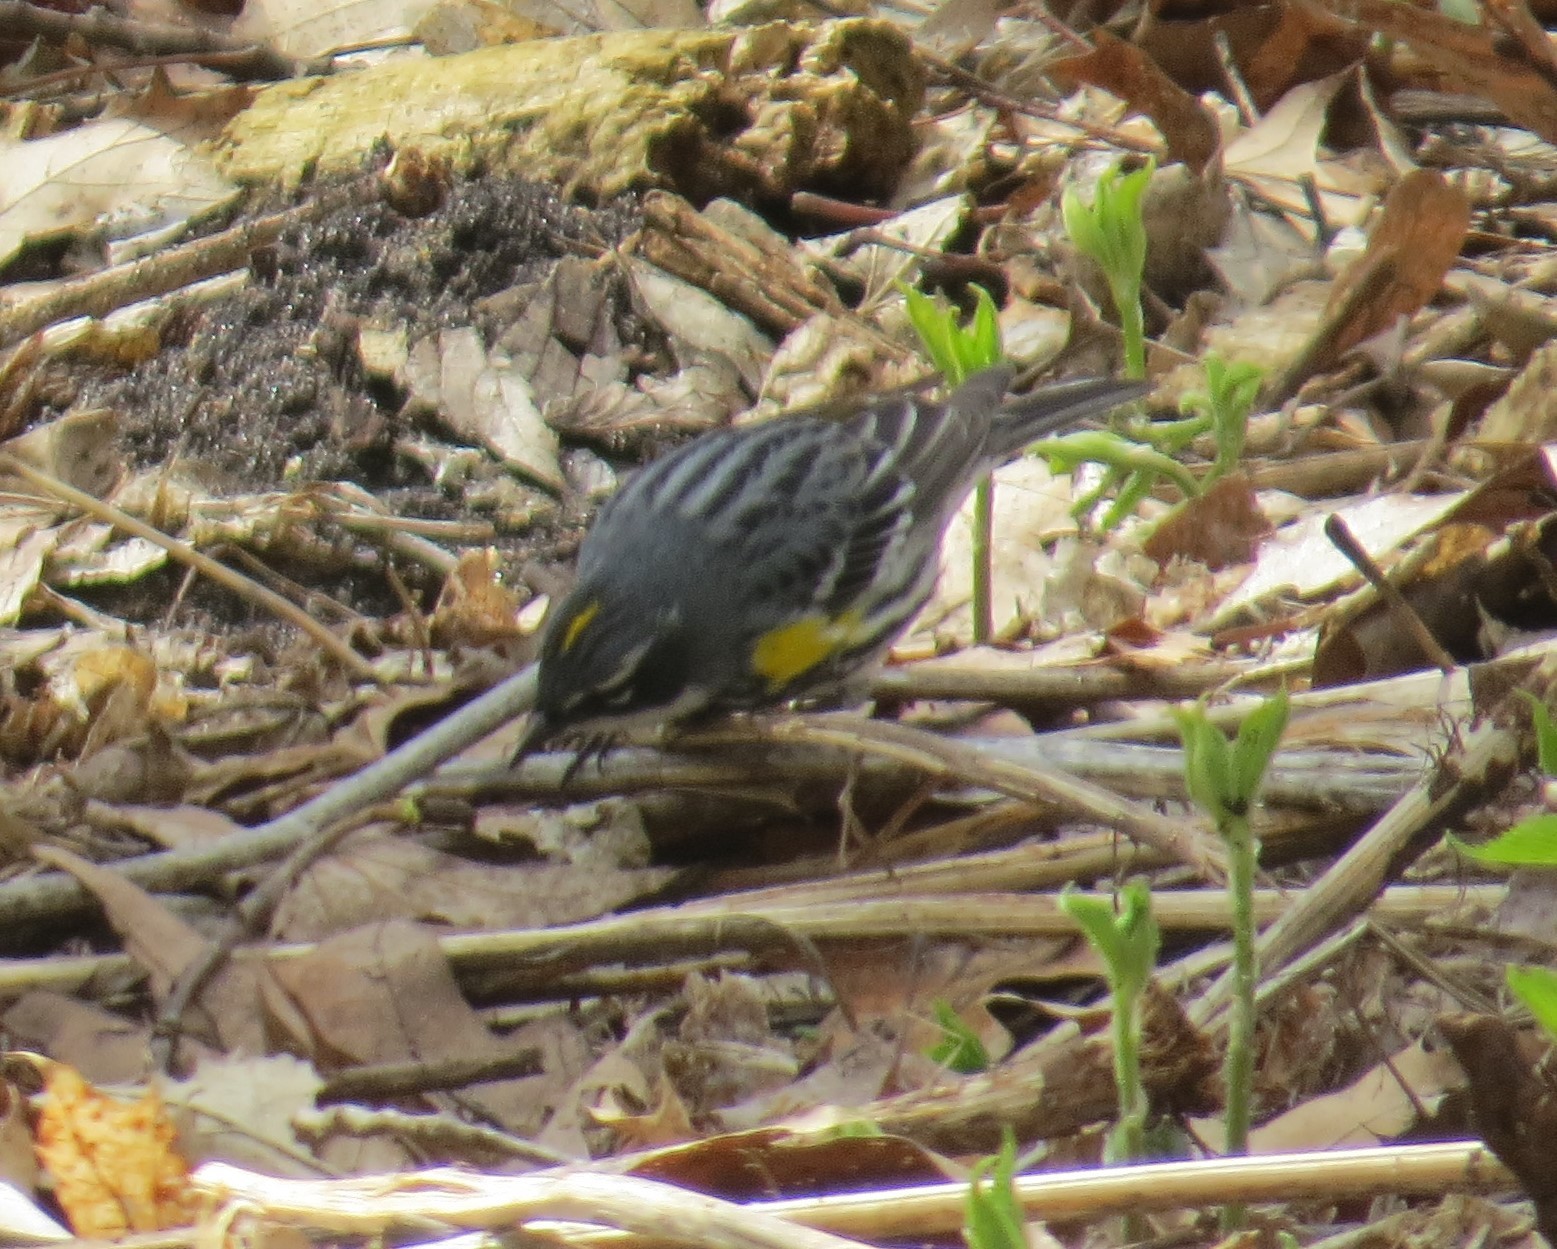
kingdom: Animalia
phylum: Chordata
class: Aves
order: Passeriformes
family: Parulidae
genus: Setophaga
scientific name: Setophaga coronata
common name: Myrtle warbler
